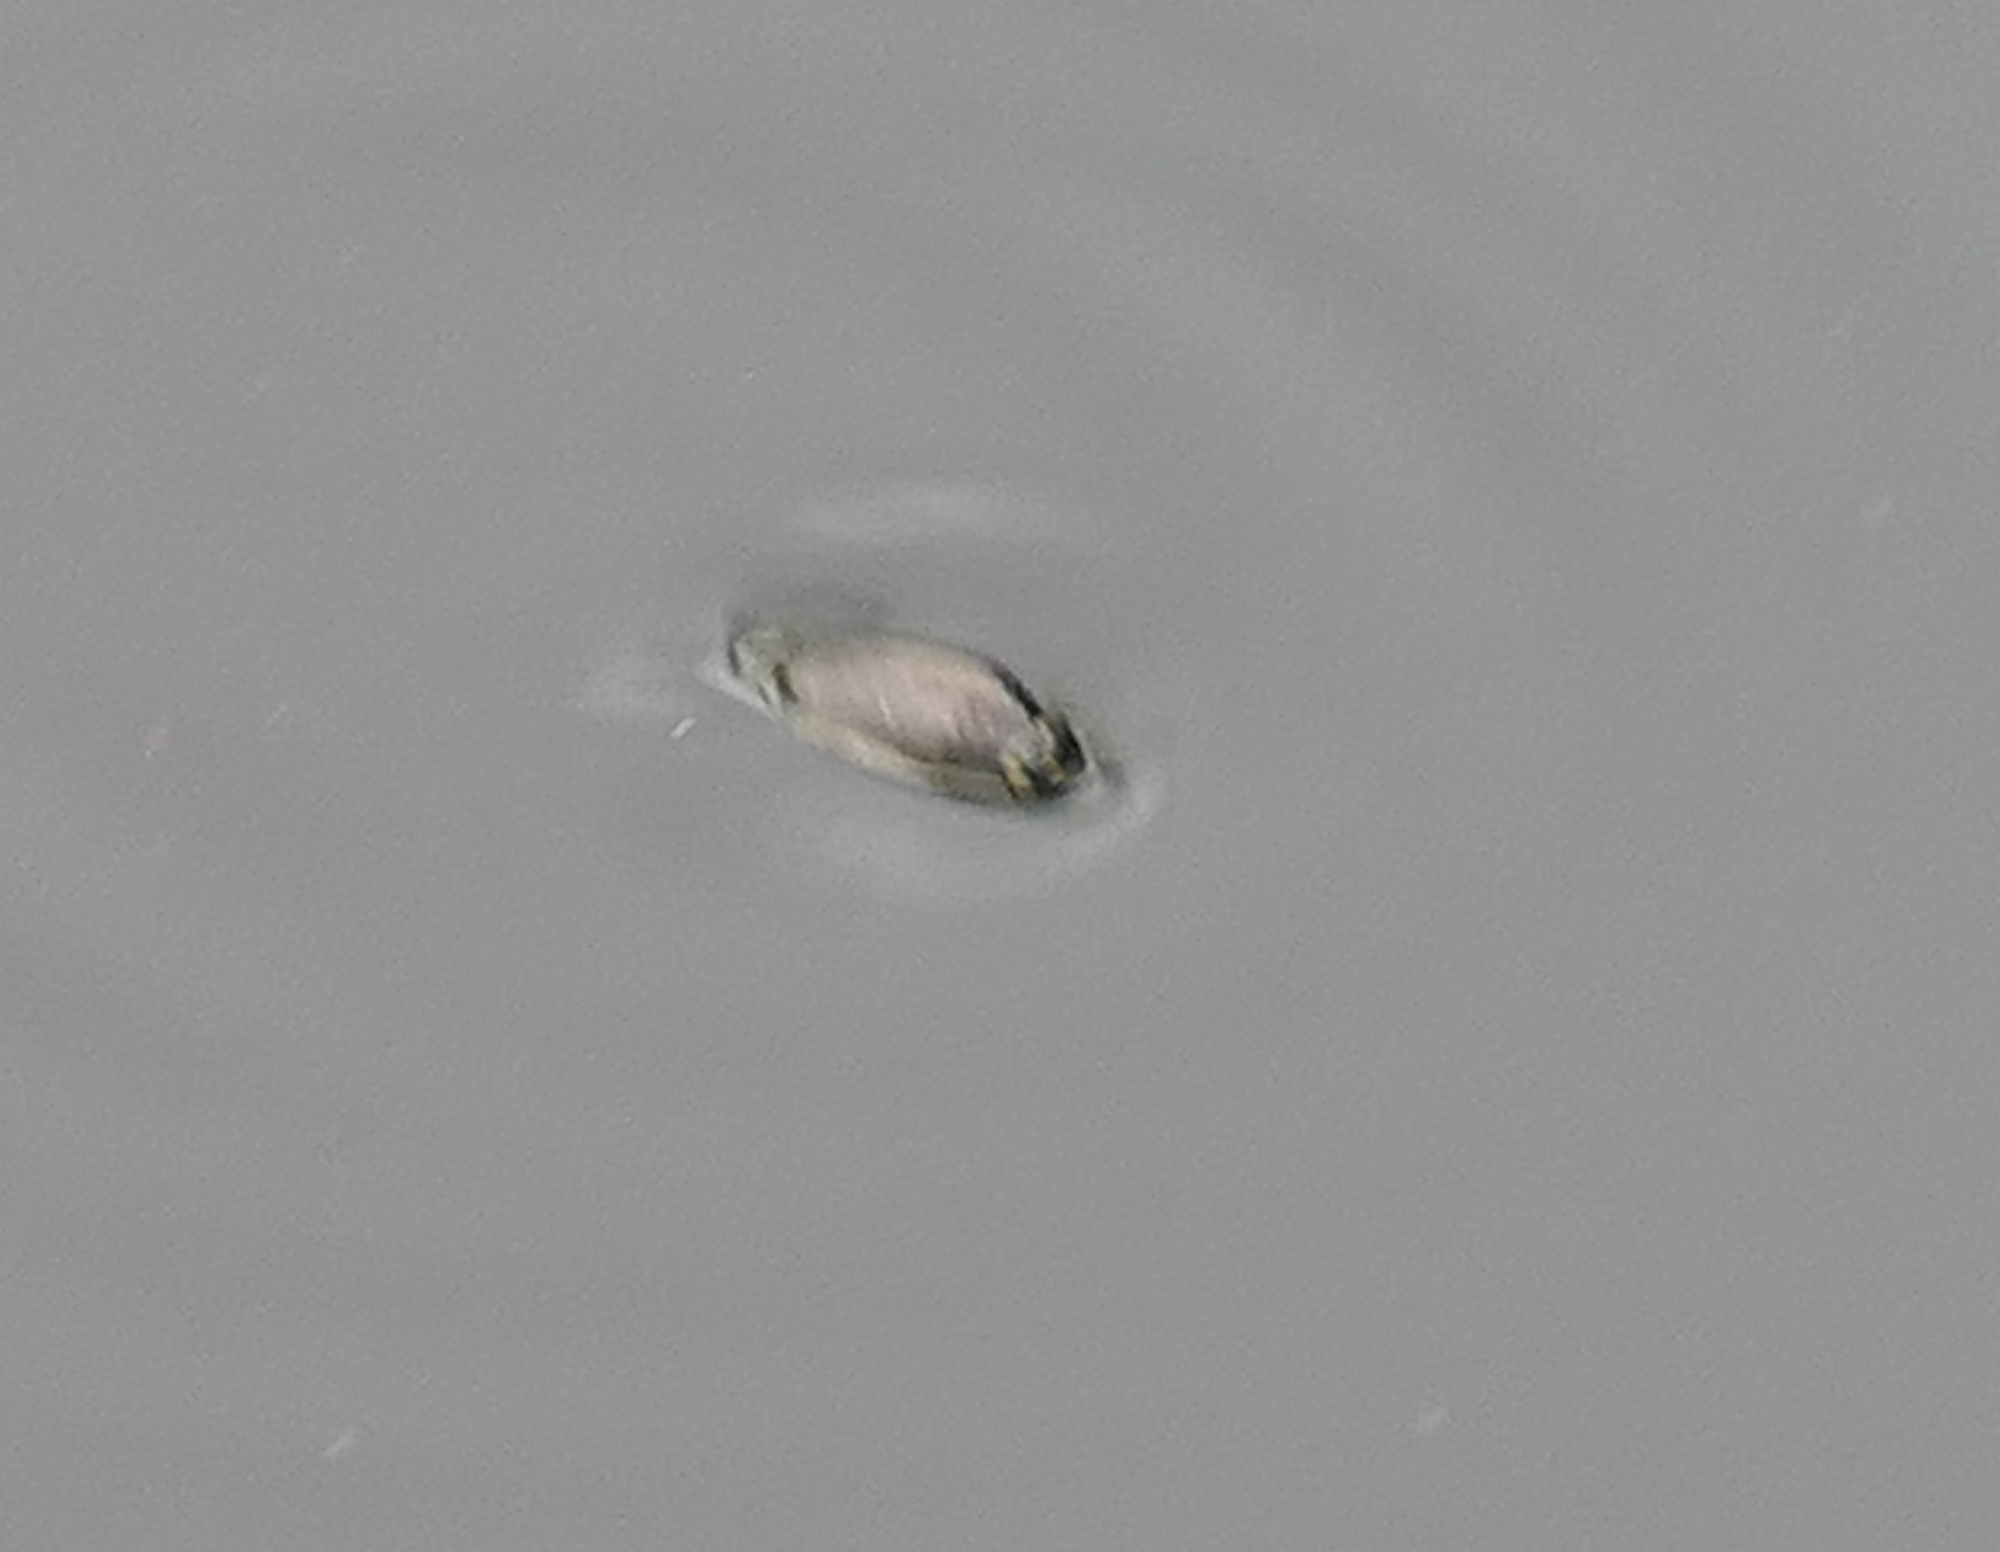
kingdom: Animalia
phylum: Arthropoda
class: Insecta
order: Coleoptera
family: Gyrinidae
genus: Dineutus
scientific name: Dineutus
